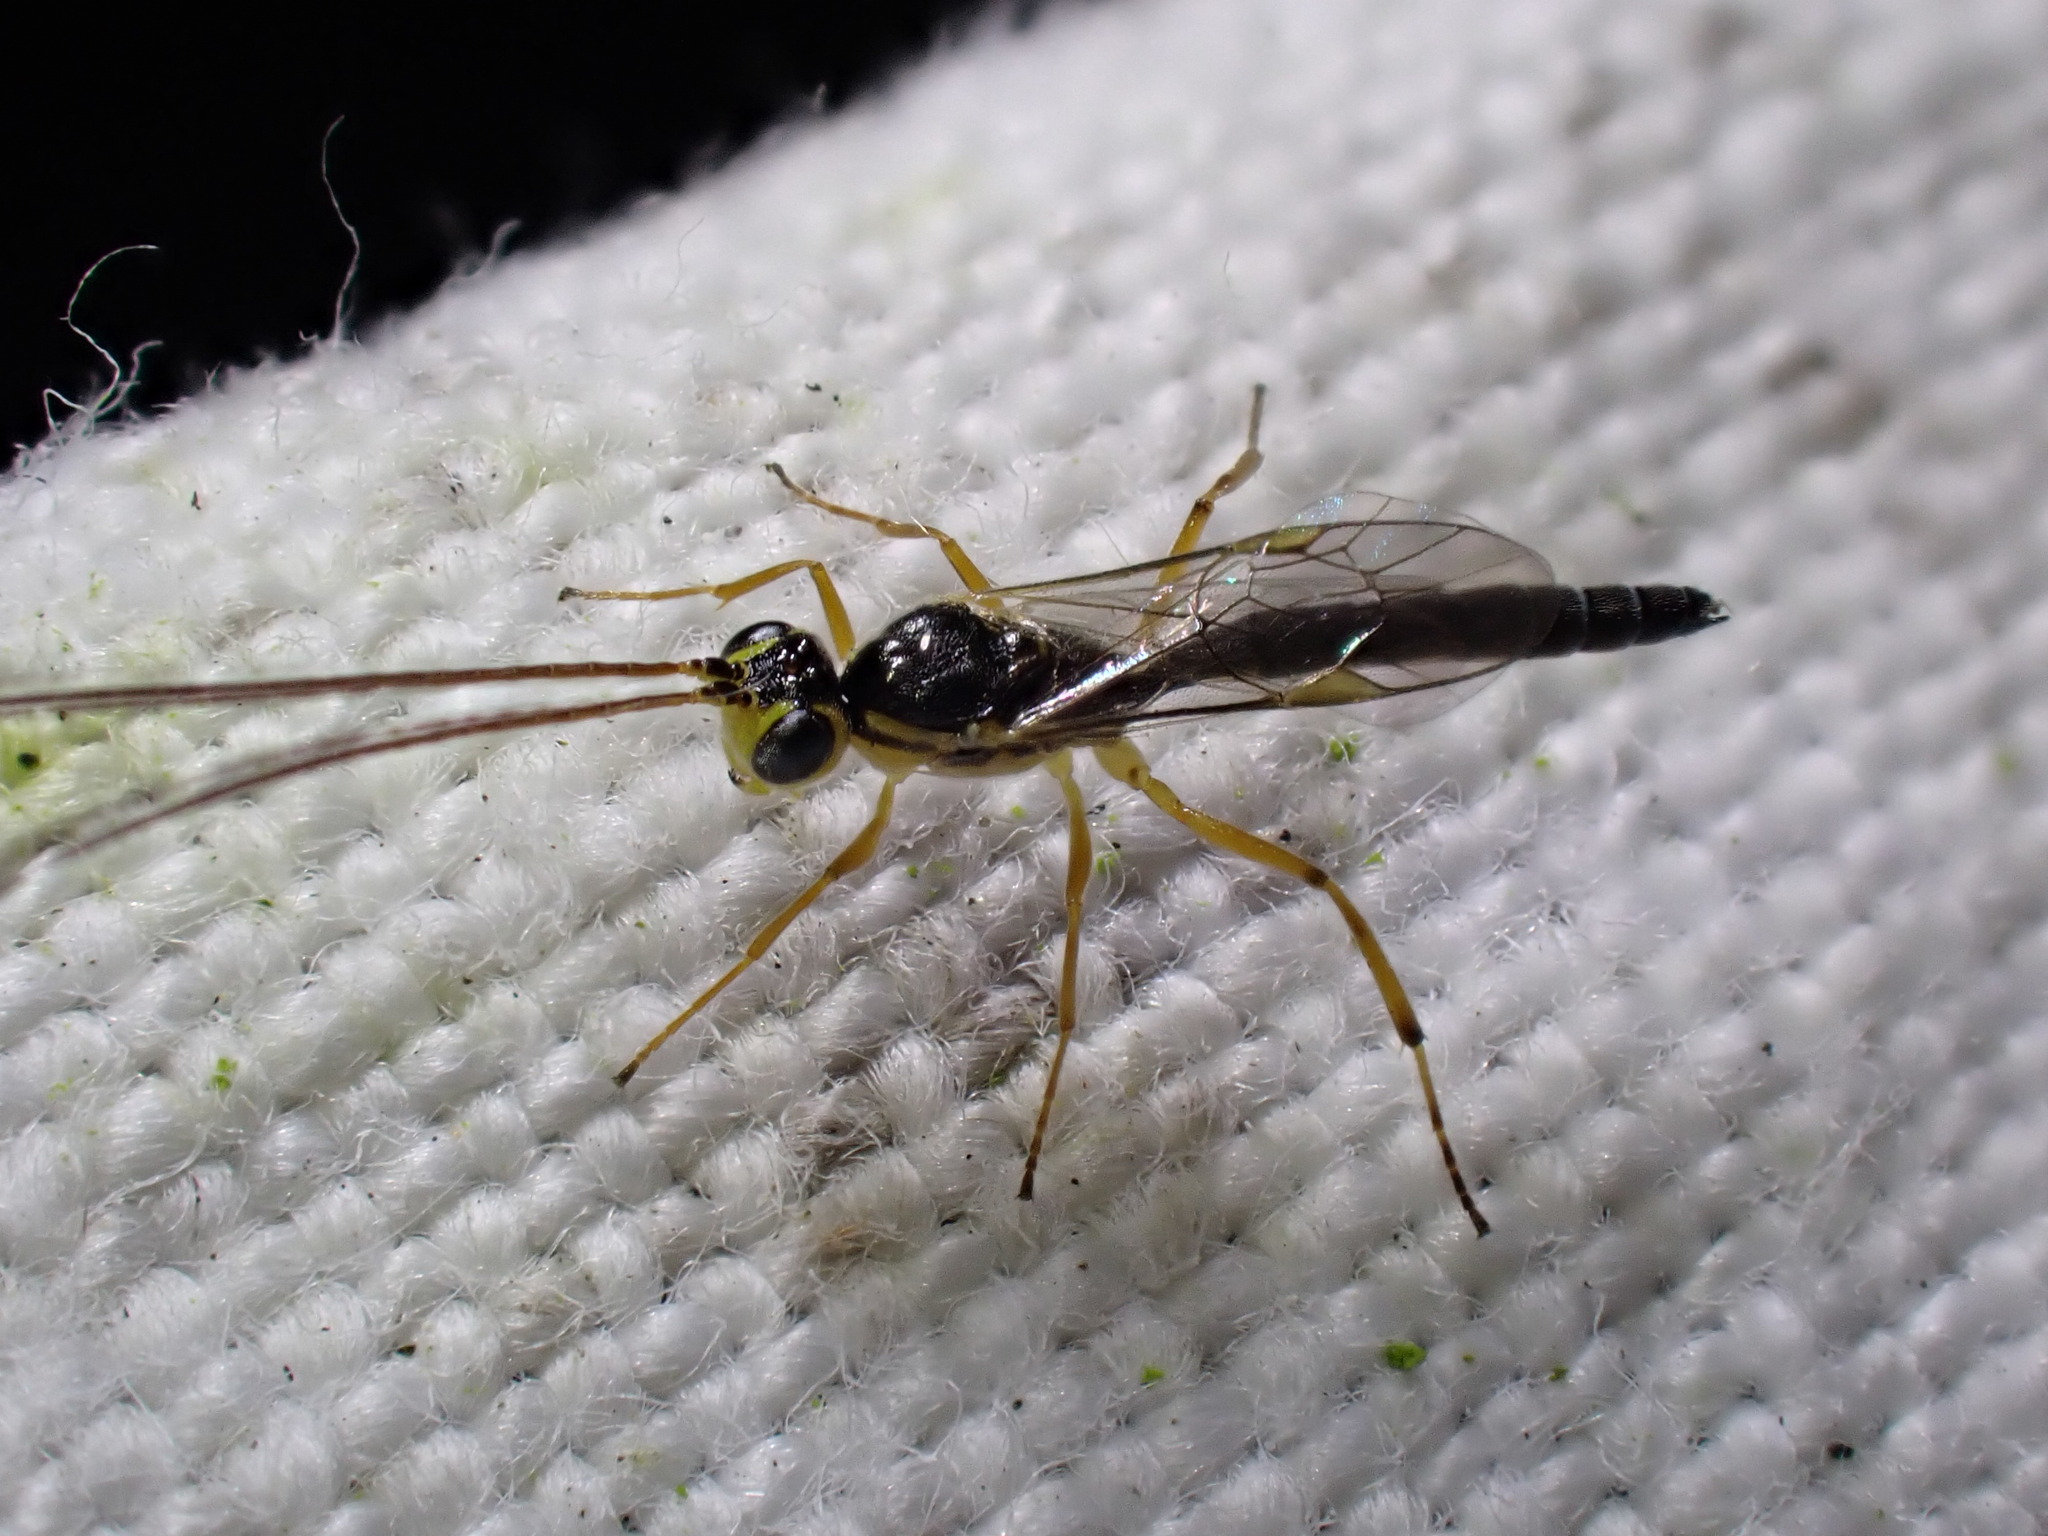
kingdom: Animalia
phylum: Arthropoda
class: Insecta
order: Hymenoptera
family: Ichneumonidae
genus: Oedemopsis
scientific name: Oedemopsis scabricula
